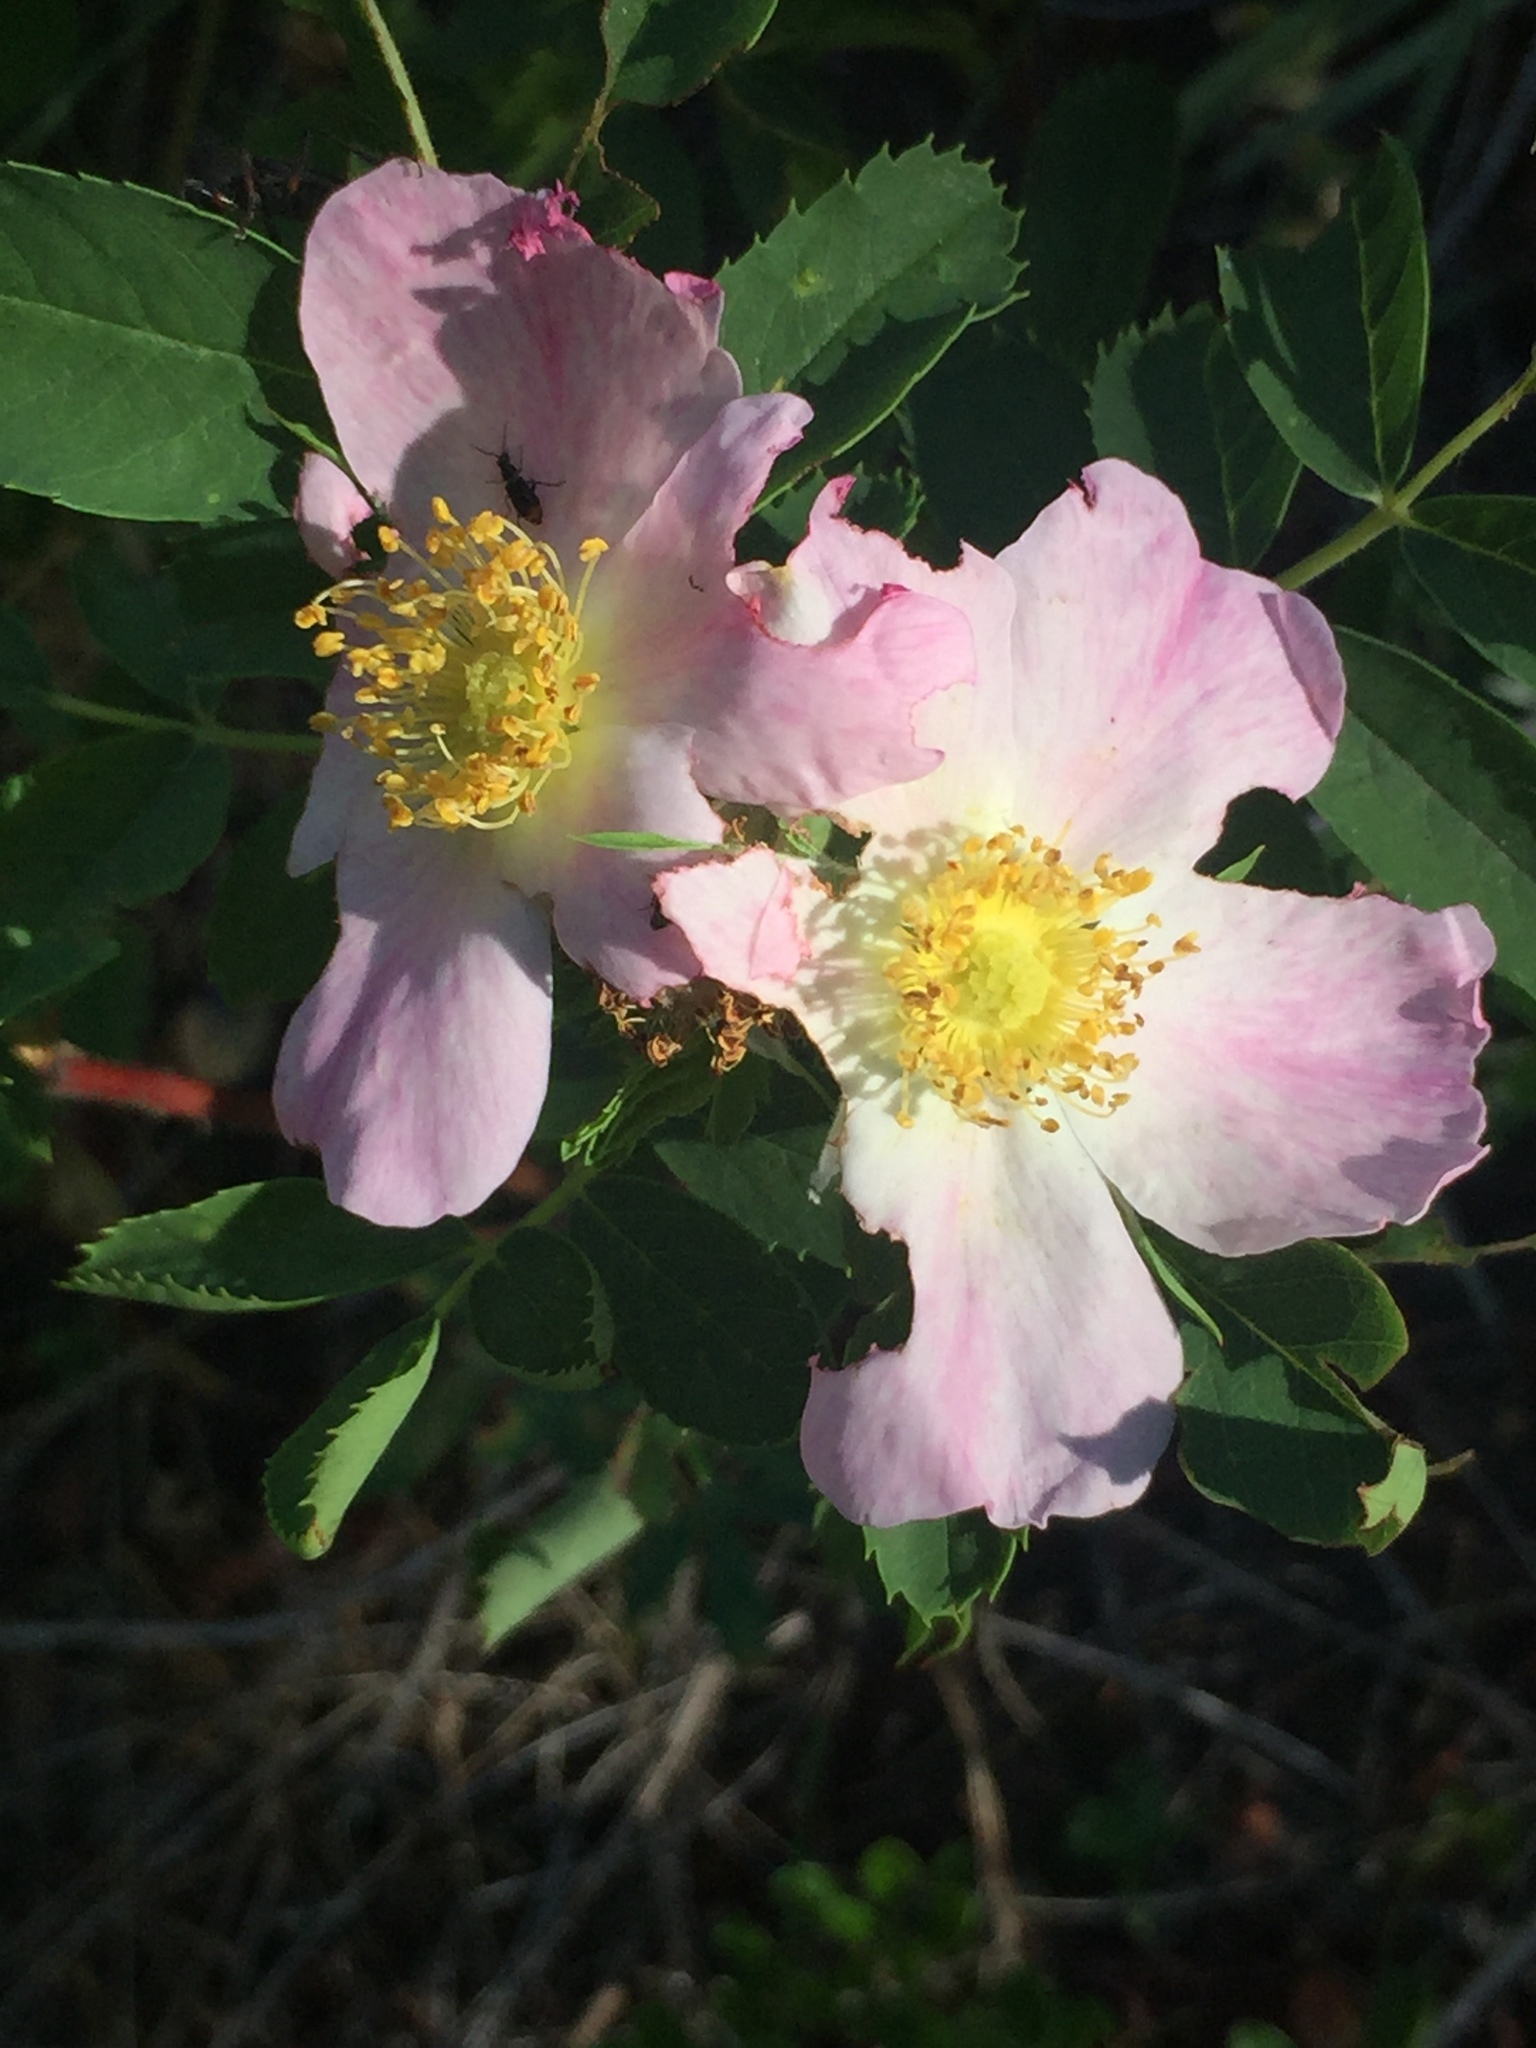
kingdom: Plantae
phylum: Tracheophyta
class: Magnoliopsida
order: Rosales
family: Rosaceae
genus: Rosa
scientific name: Rosa woodsii
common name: Woods's rose
